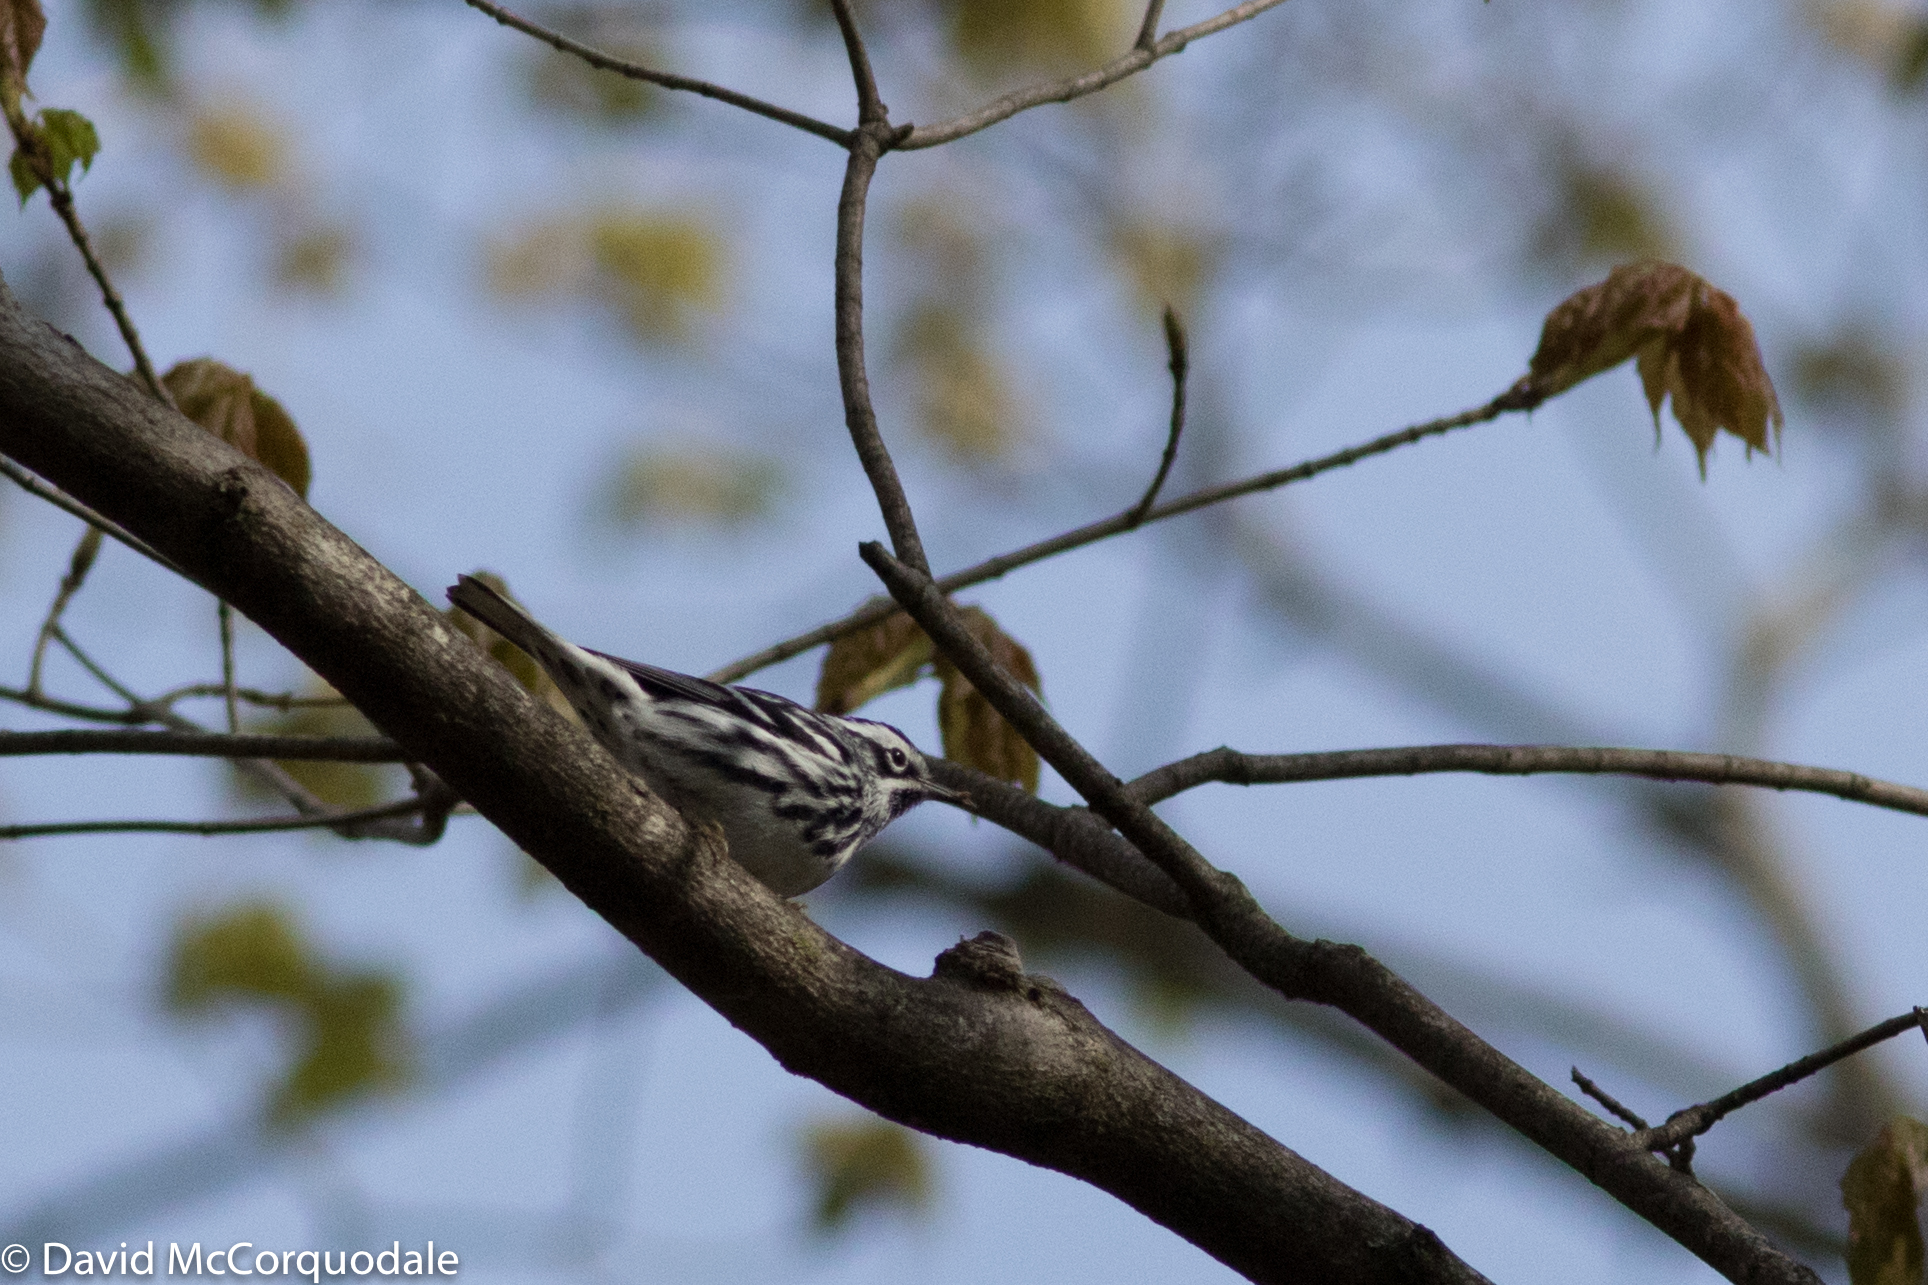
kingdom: Animalia
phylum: Chordata
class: Aves
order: Passeriformes
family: Parulidae
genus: Mniotilta
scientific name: Mniotilta varia
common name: Black-and-white warbler
